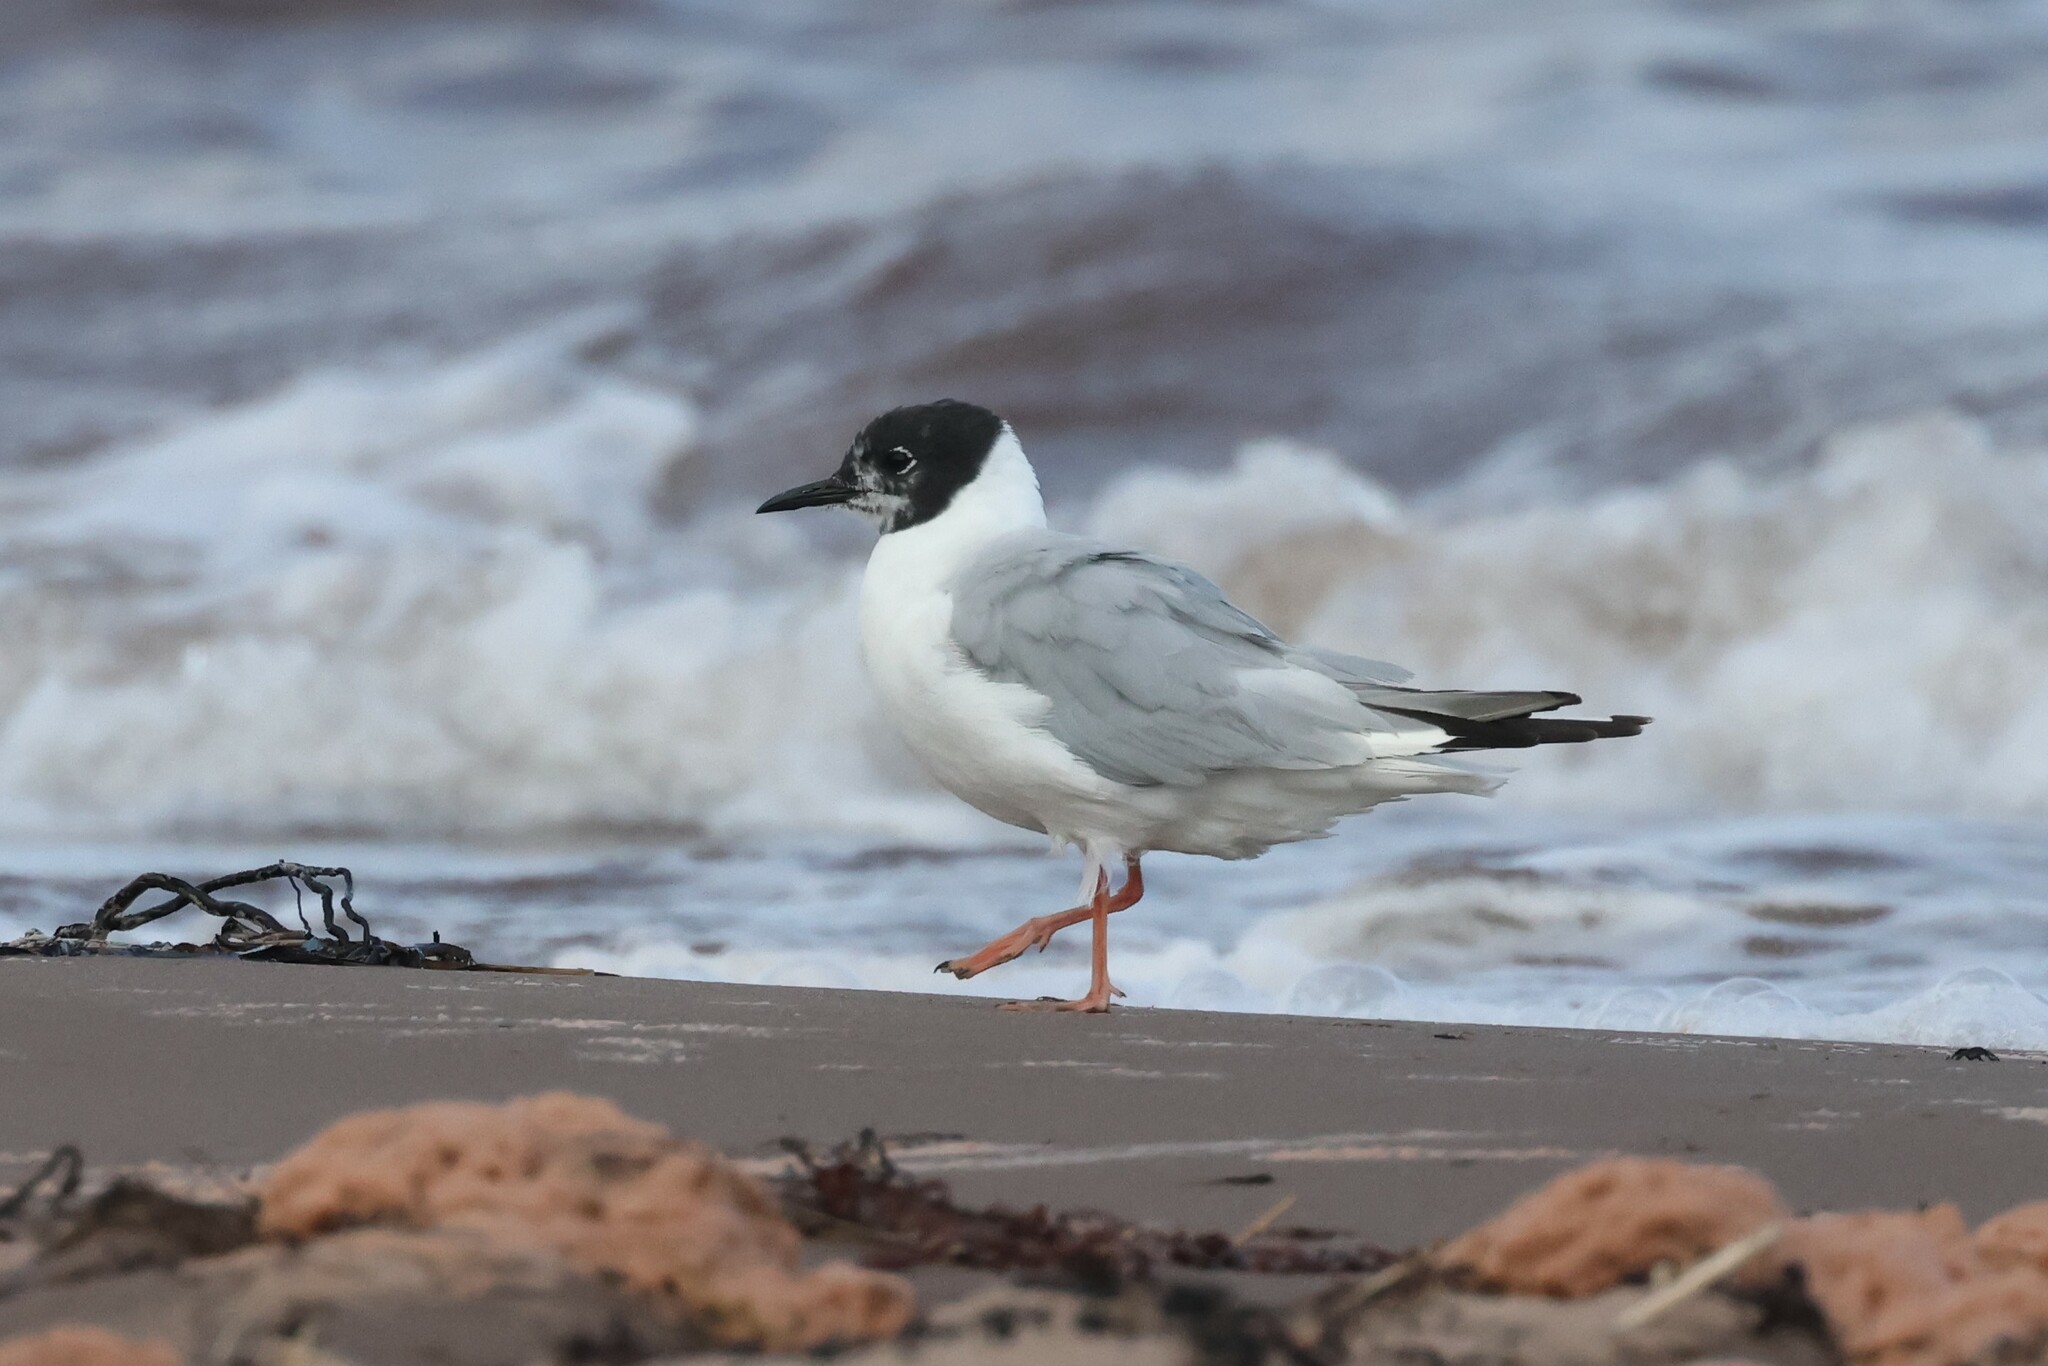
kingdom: Animalia
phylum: Chordata
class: Aves
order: Charadriiformes
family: Laridae
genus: Chroicocephalus
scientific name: Chroicocephalus philadelphia
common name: Bonaparte's gull
